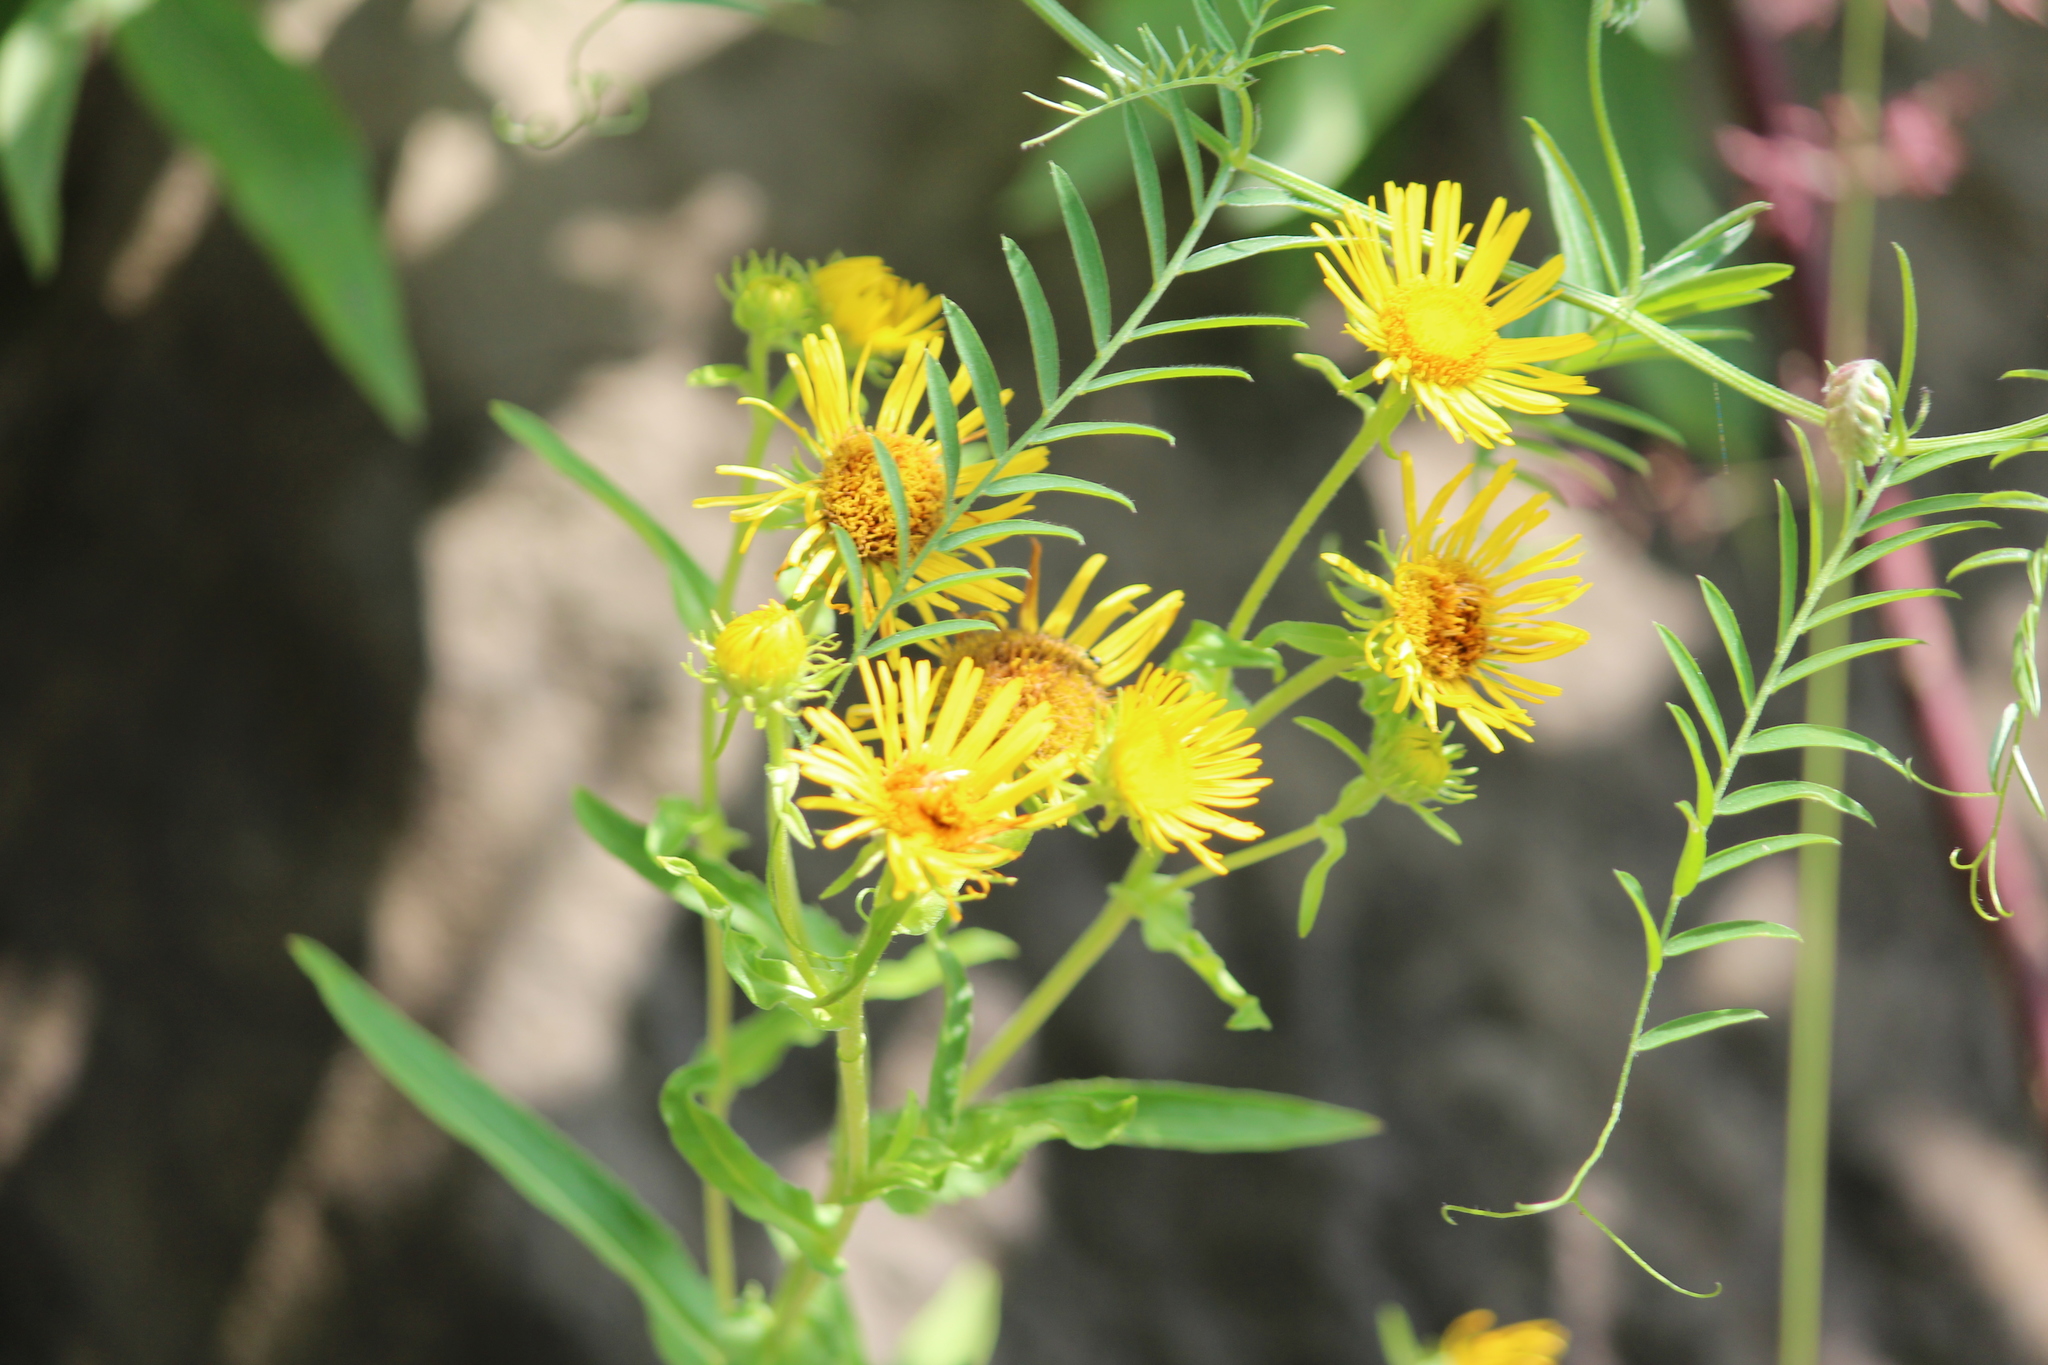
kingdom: Plantae
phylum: Tracheophyta
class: Magnoliopsida
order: Asterales
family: Asteraceae
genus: Pentanema
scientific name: Pentanema salicinum
